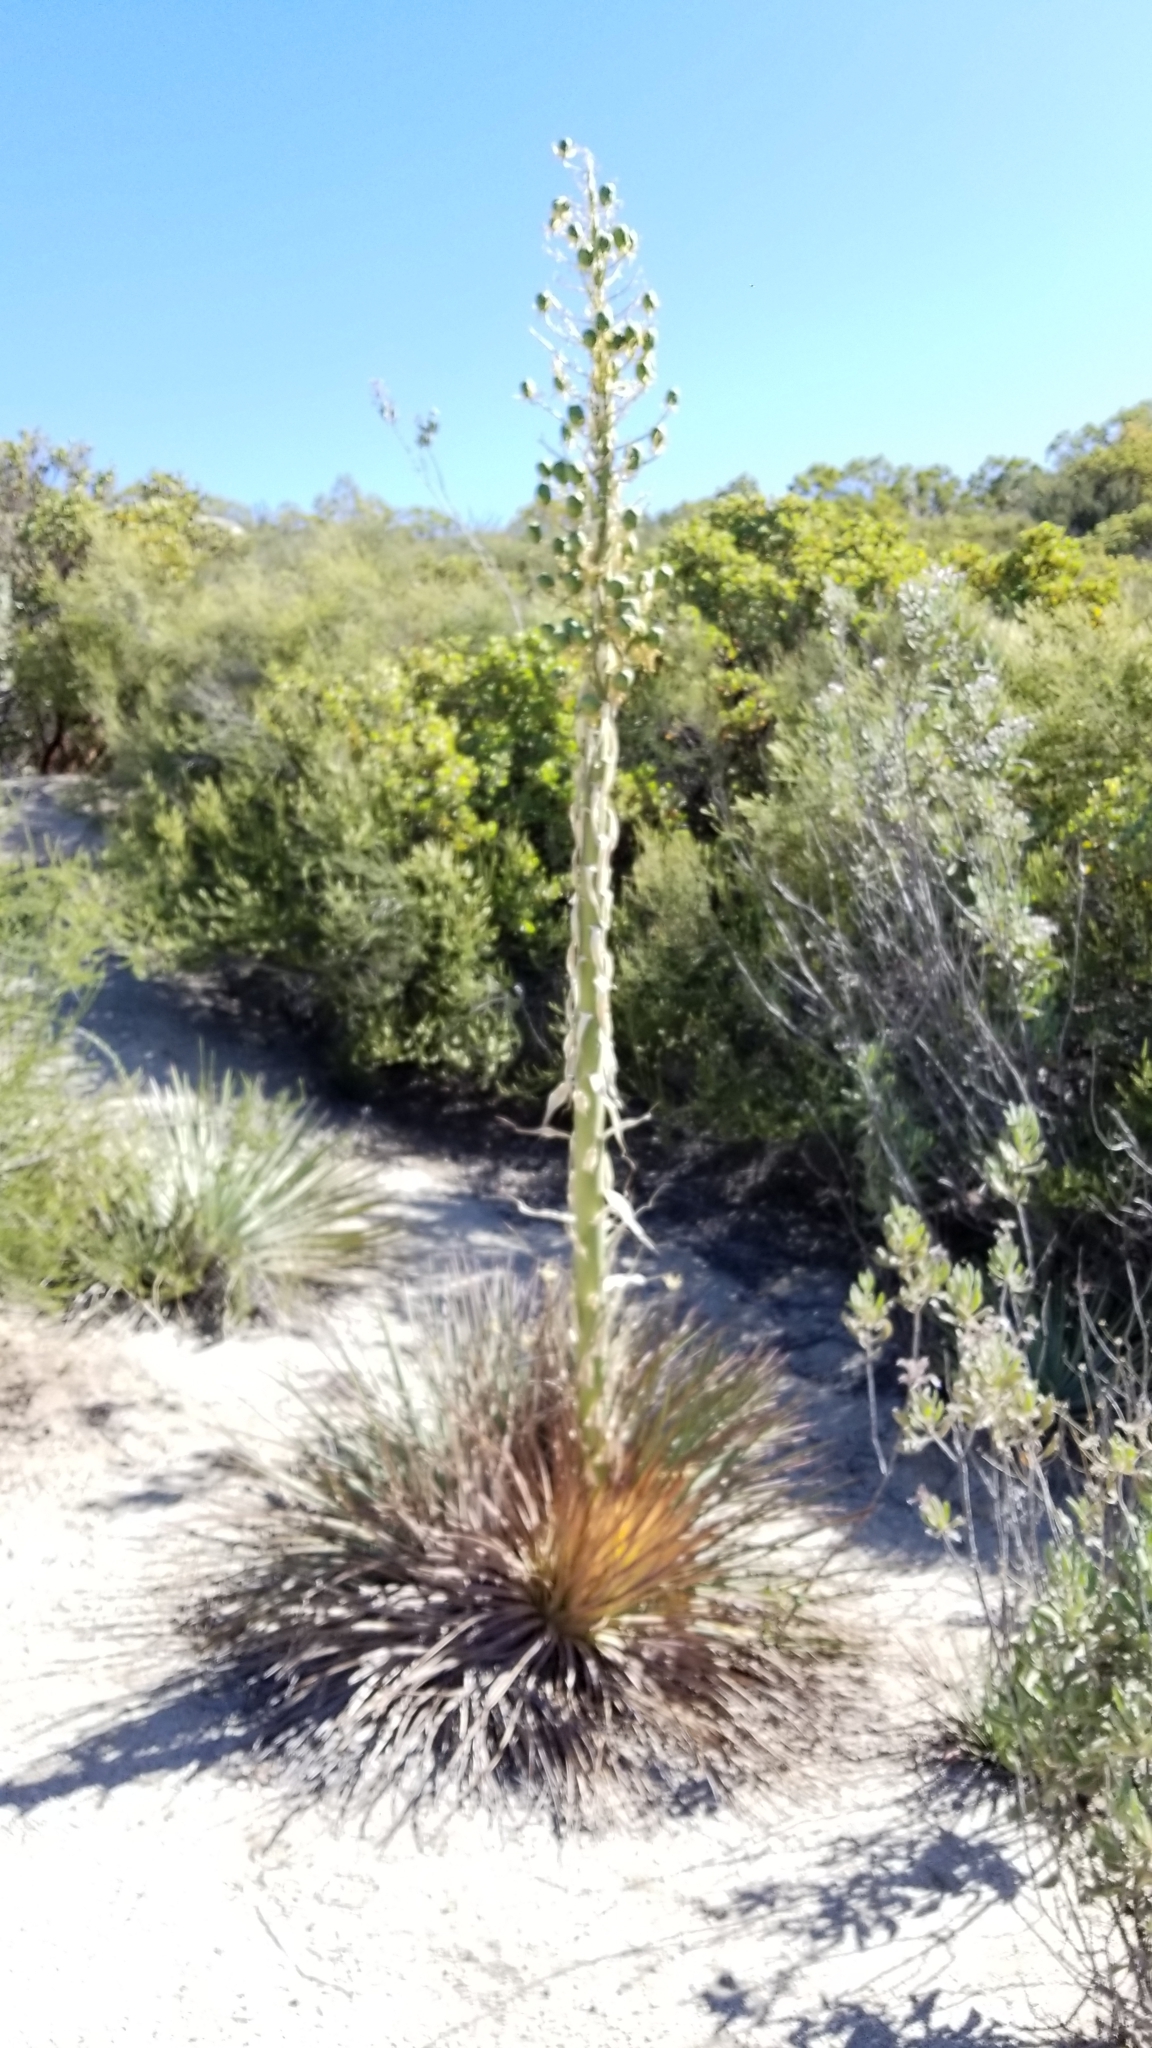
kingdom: Plantae
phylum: Tracheophyta
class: Liliopsida
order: Asparagales
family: Asparagaceae
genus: Hesperoyucca
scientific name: Hesperoyucca whipplei
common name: Our lord's-candle
